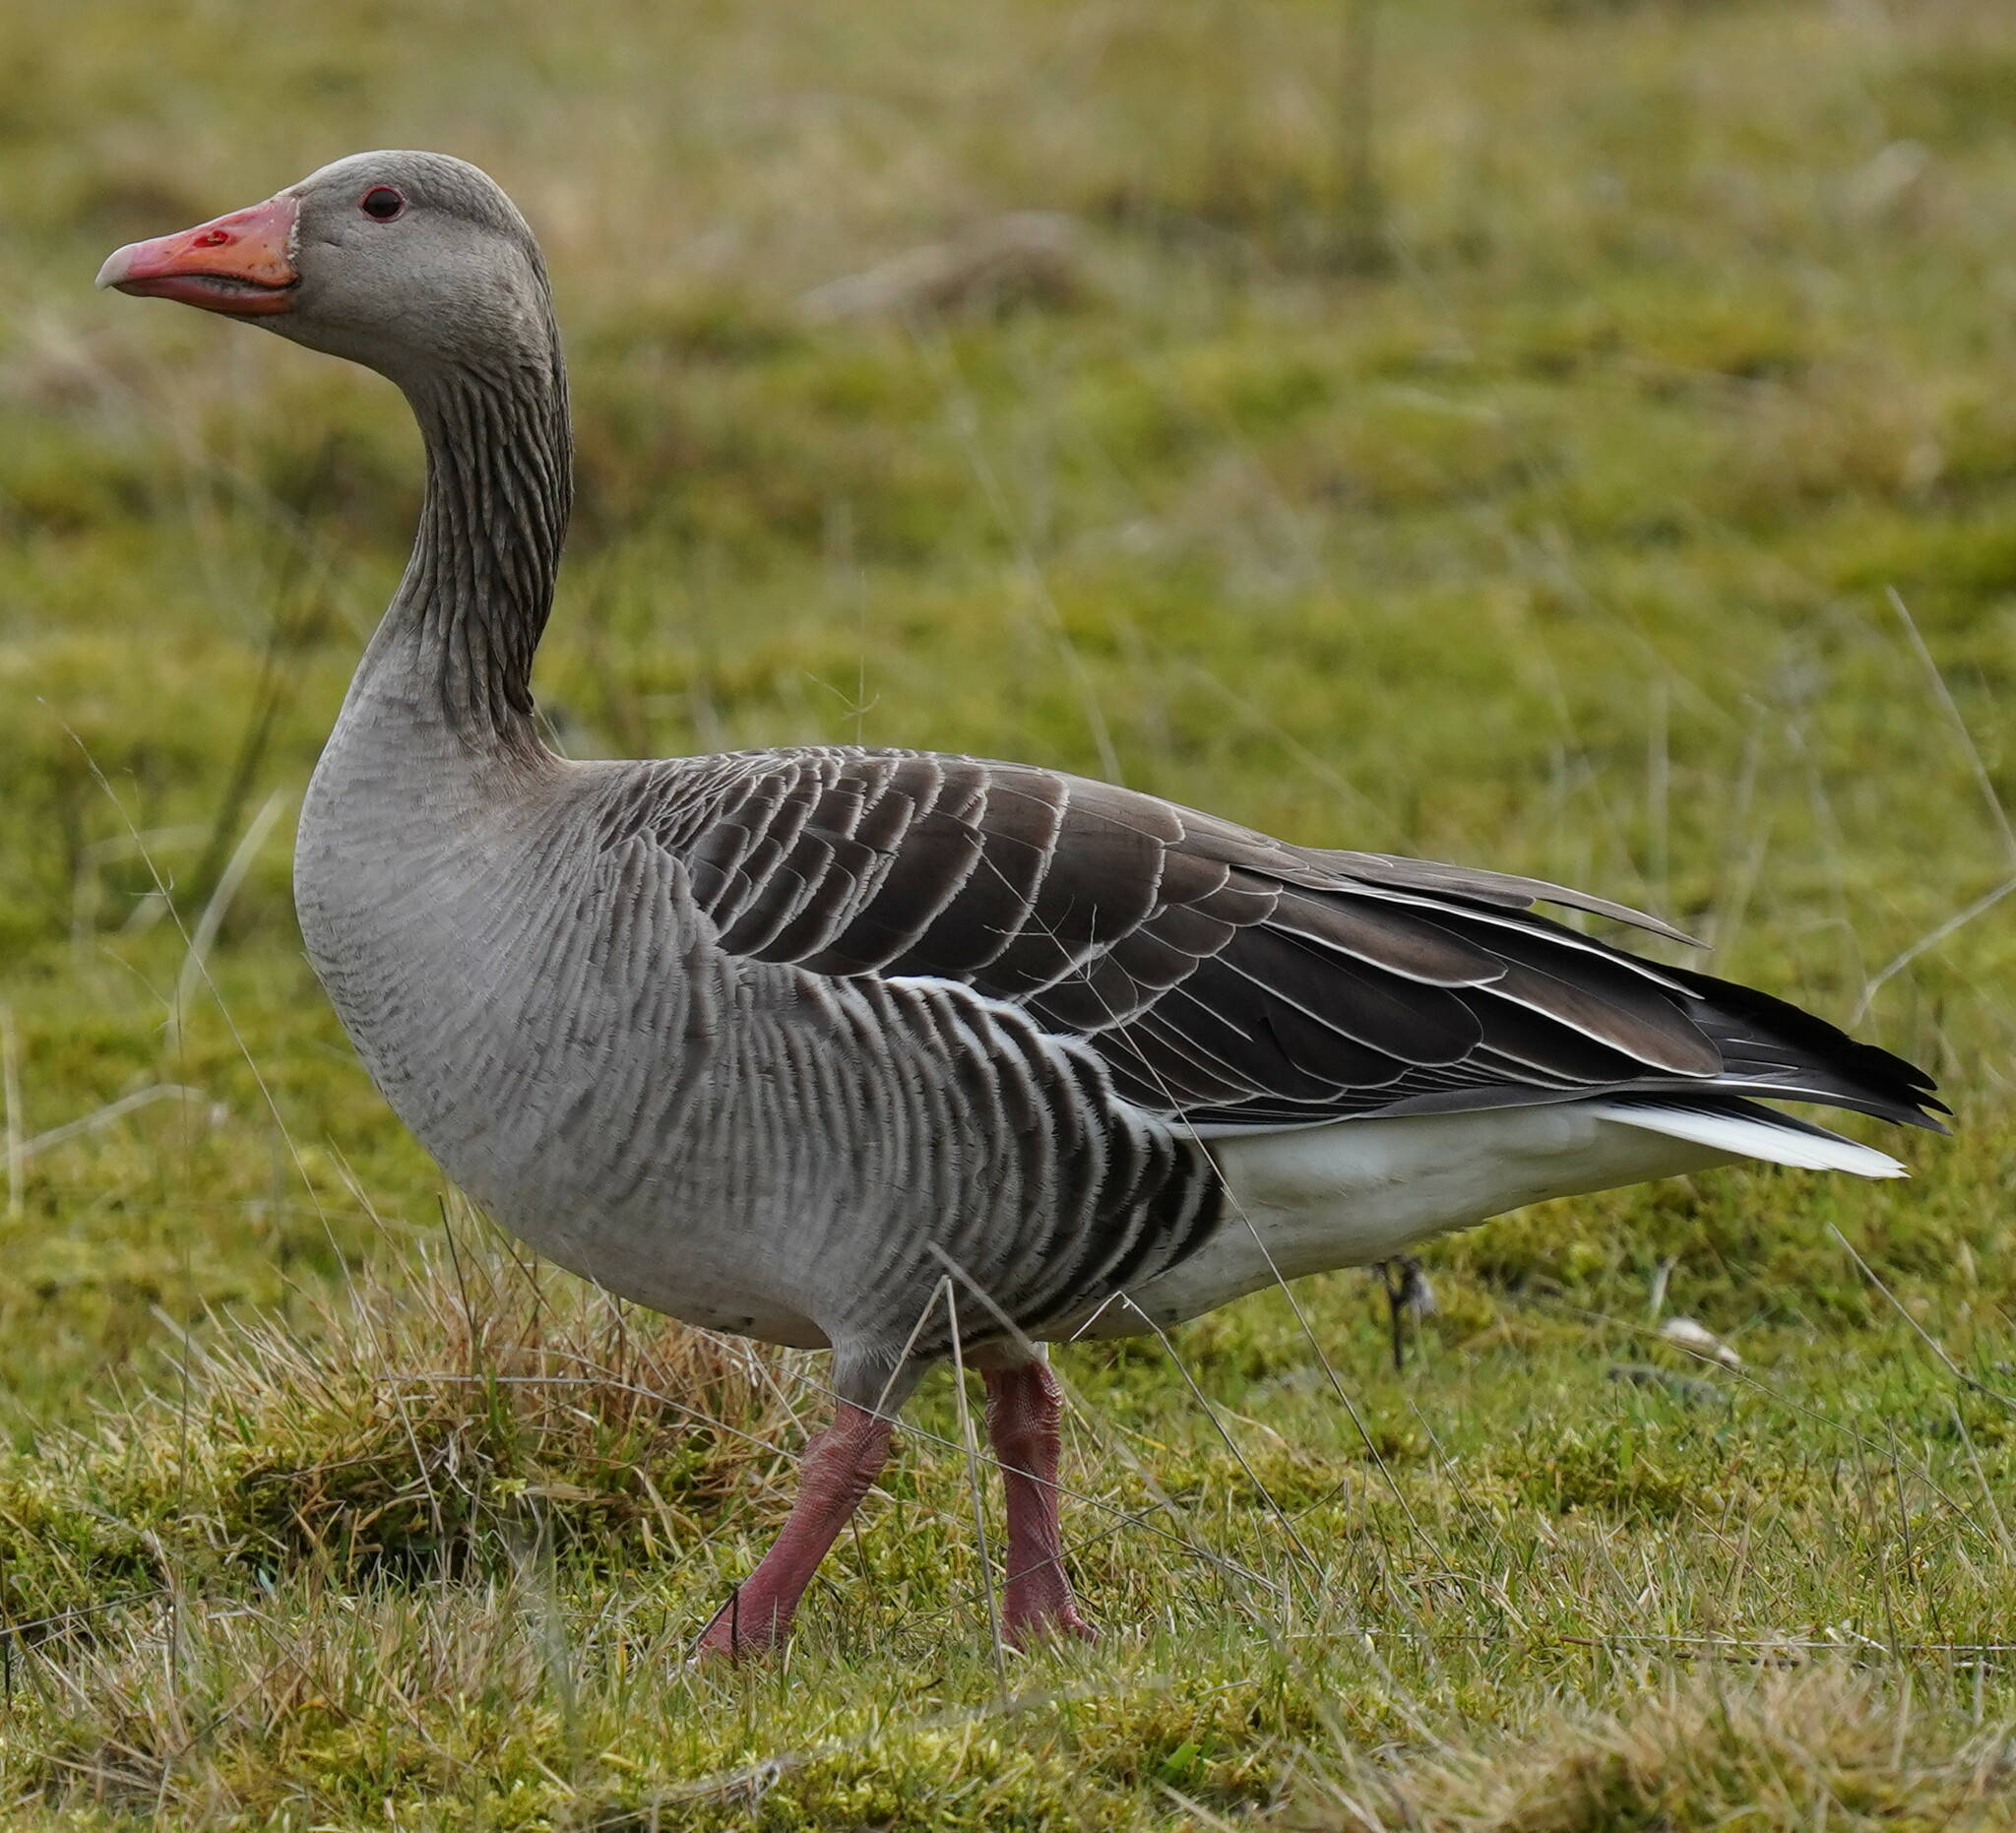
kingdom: Animalia
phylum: Chordata
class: Aves
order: Anseriformes
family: Anatidae
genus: Anser
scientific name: Anser anser
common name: Greylag goose
